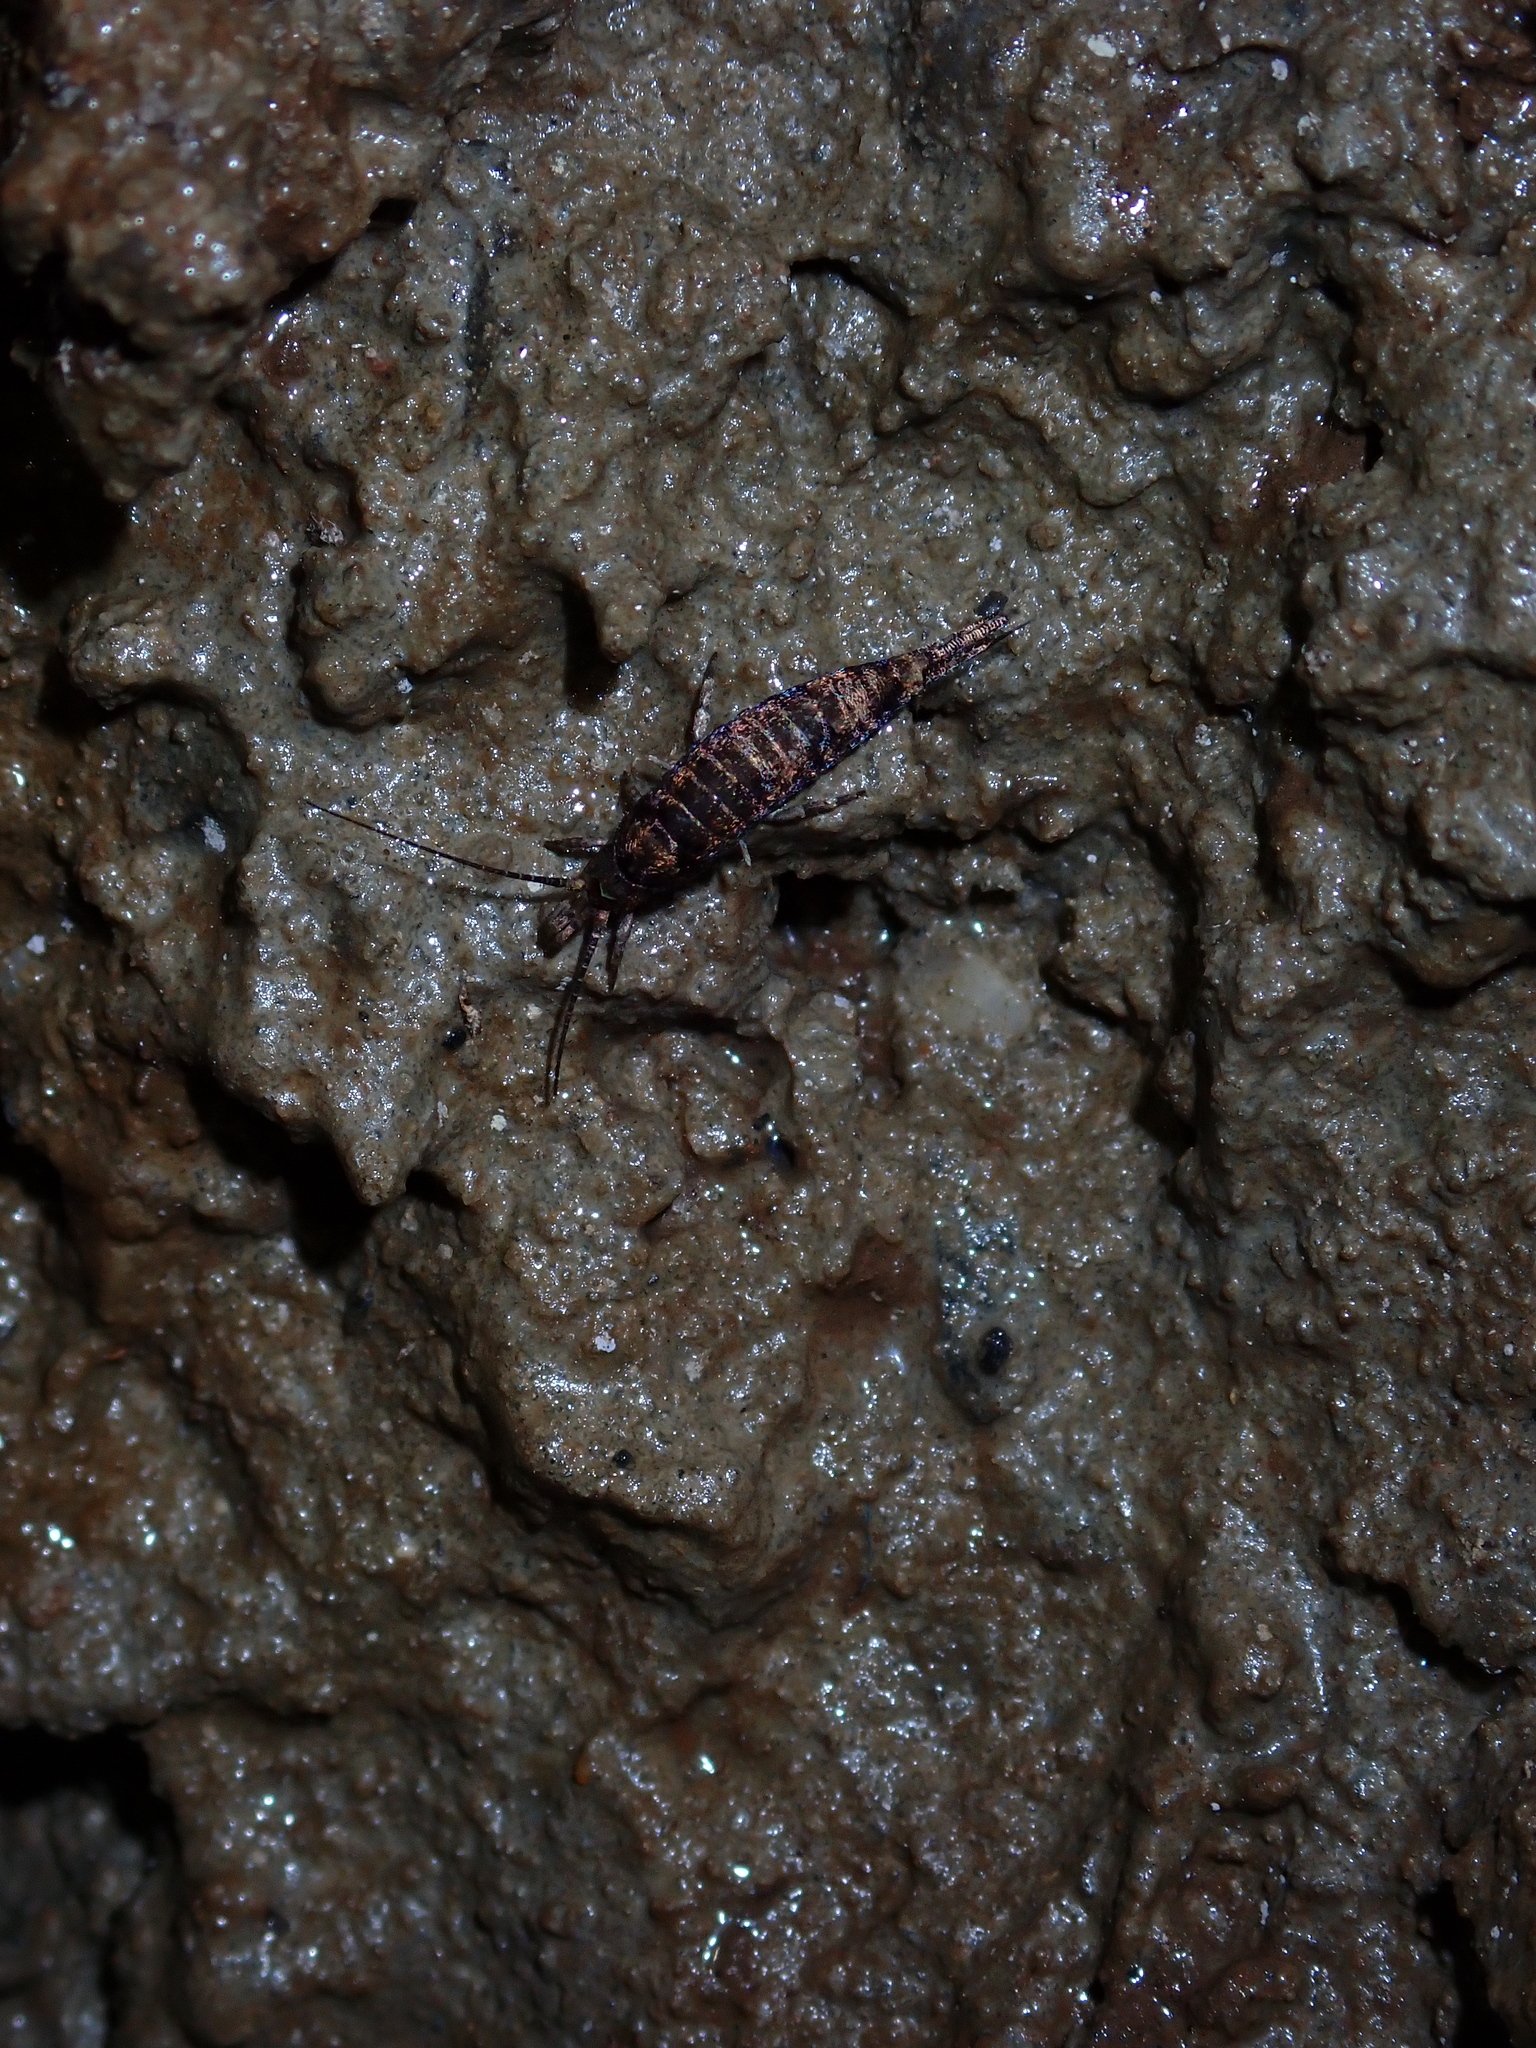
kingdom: Animalia
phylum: Arthropoda
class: Insecta
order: Archaeognatha
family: Machilidae
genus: Trigoniophthalmus
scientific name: Trigoniophthalmus alternatus
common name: Jumping bristletail
